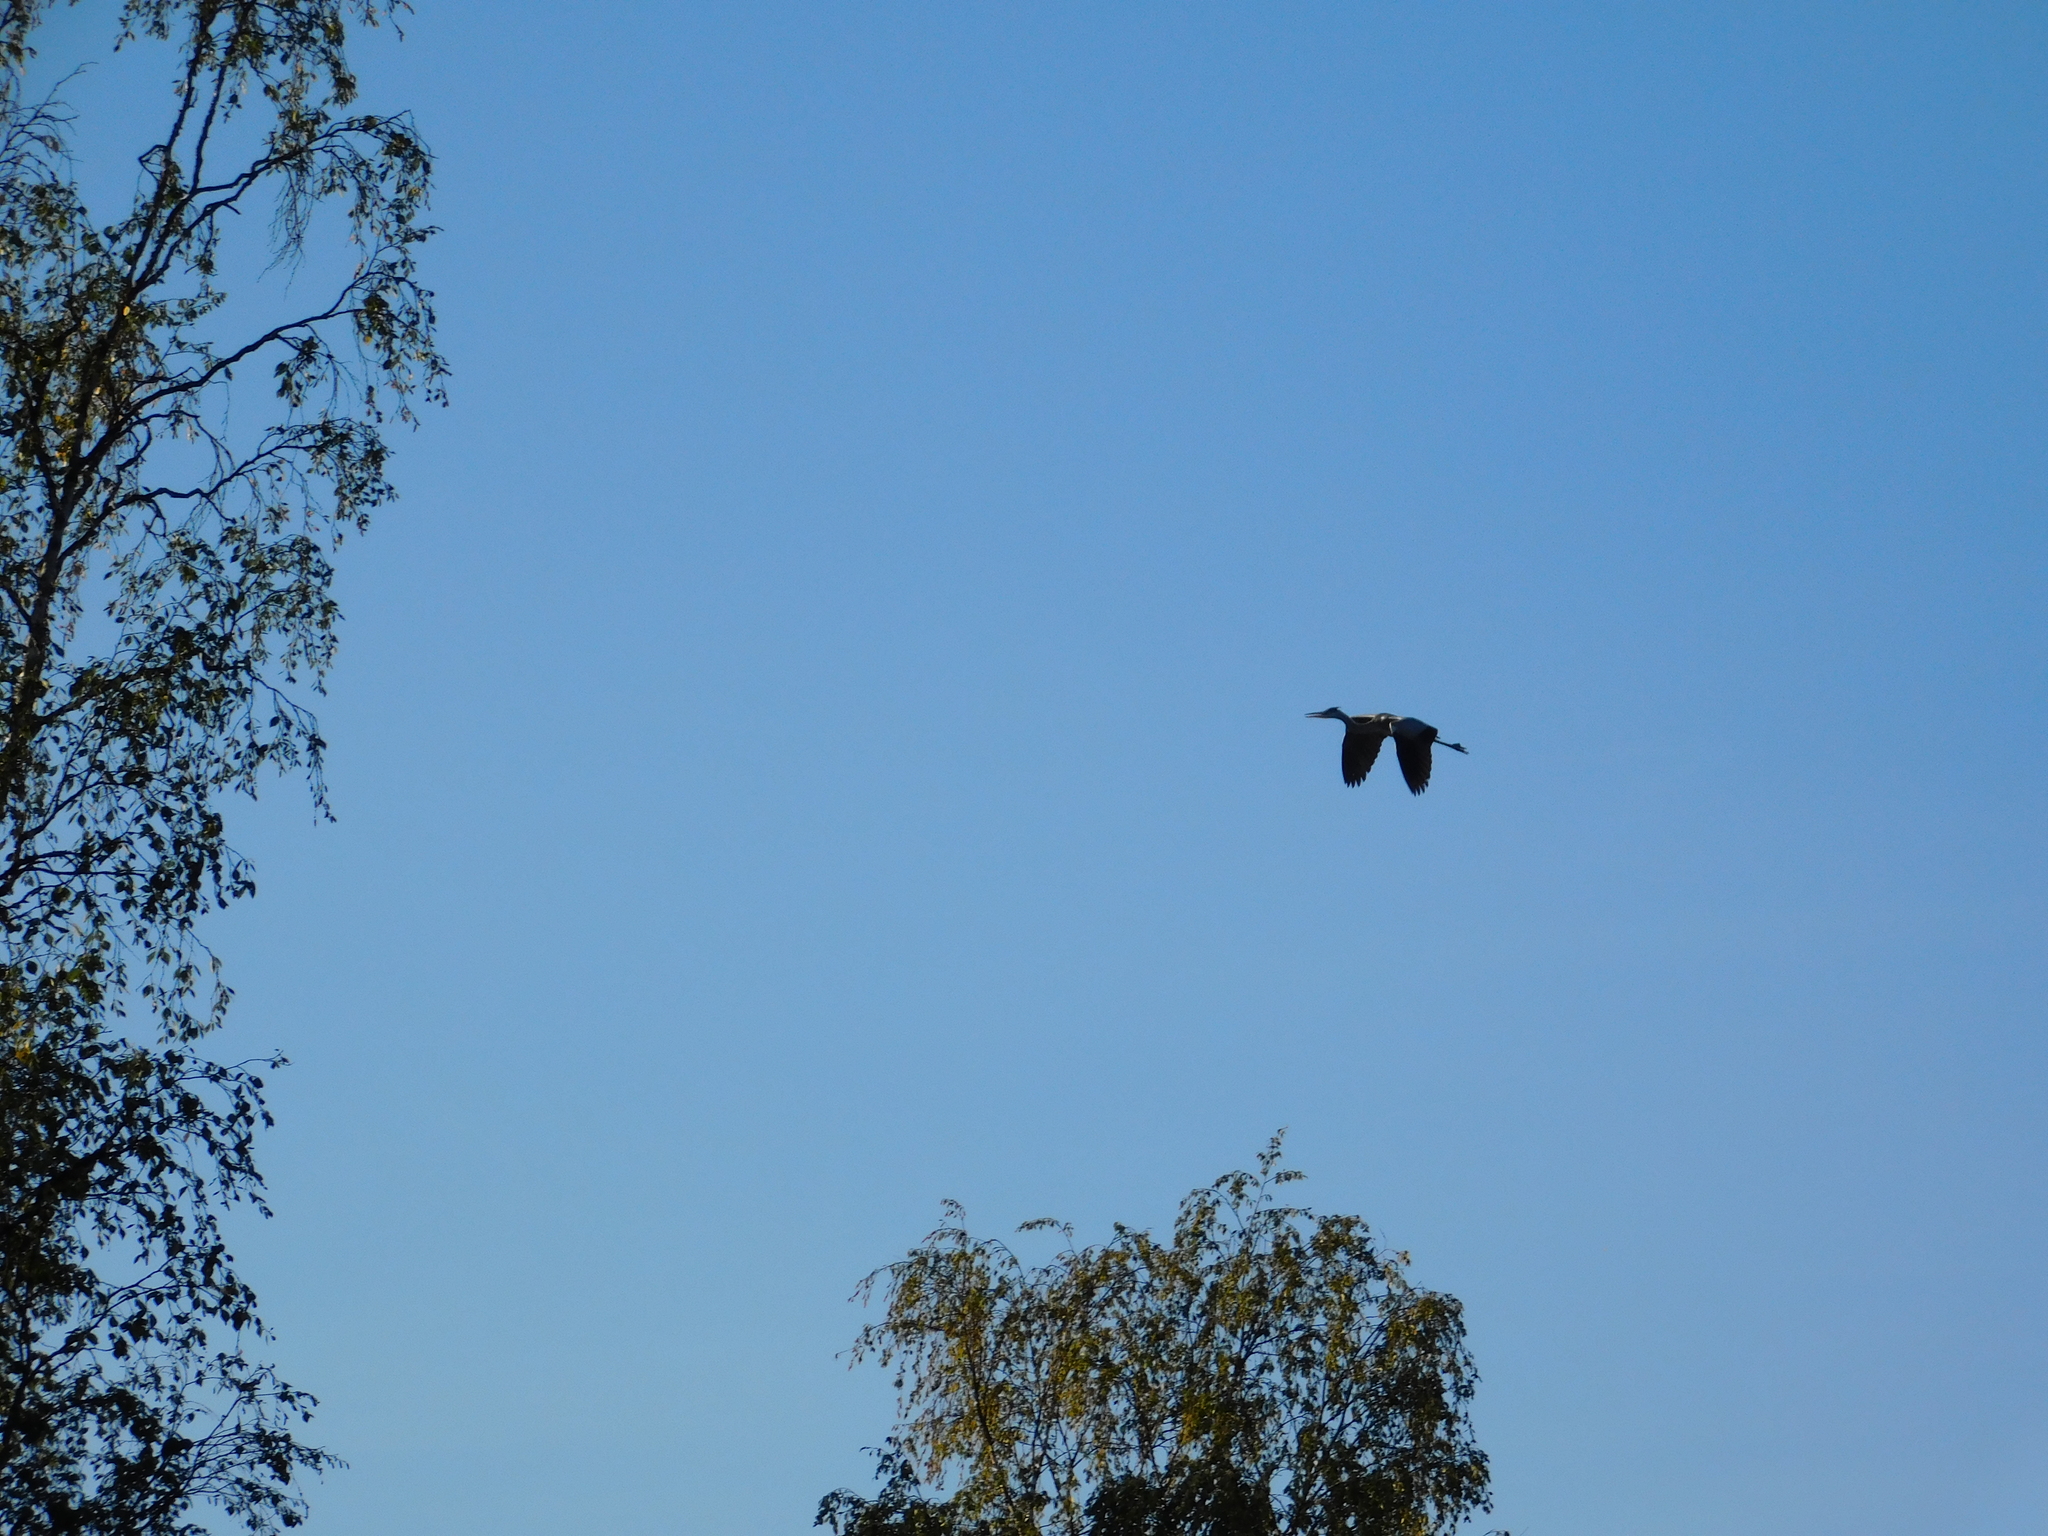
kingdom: Animalia
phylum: Chordata
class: Aves
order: Pelecaniformes
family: Ardeidae
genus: Ardea
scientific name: Ardea cinerea
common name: Grey heron
